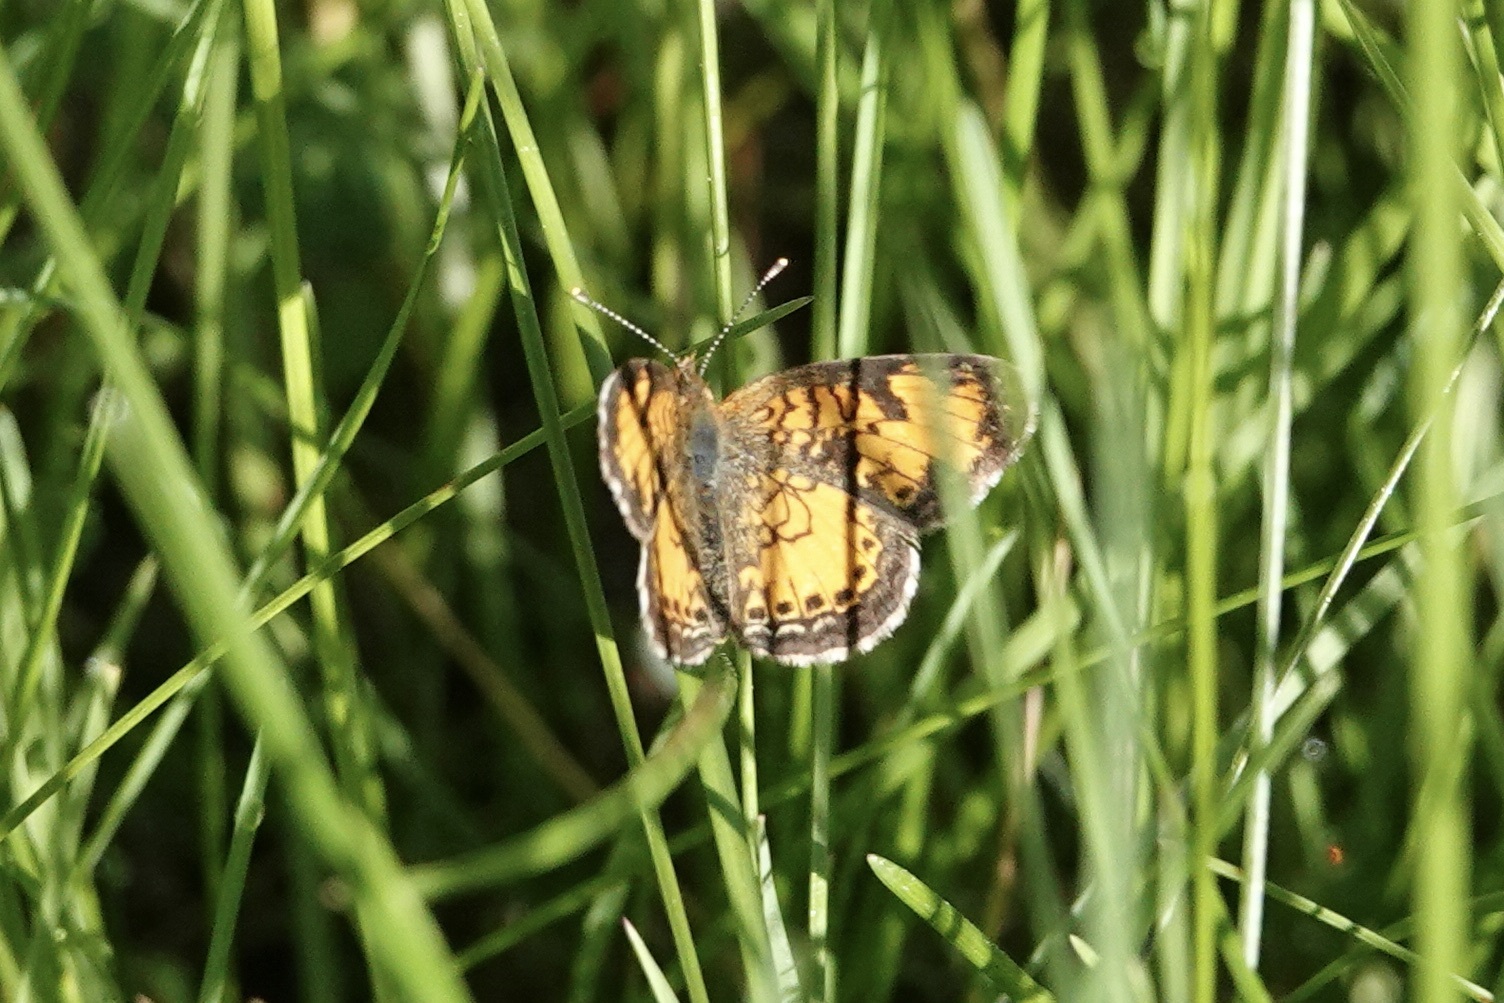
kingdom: Animalia
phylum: Arthropoda
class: Insecta
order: Lepidoptera
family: Nymphalidae
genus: Phyciodes
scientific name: Phyciodes tharos
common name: Pearl crescent
